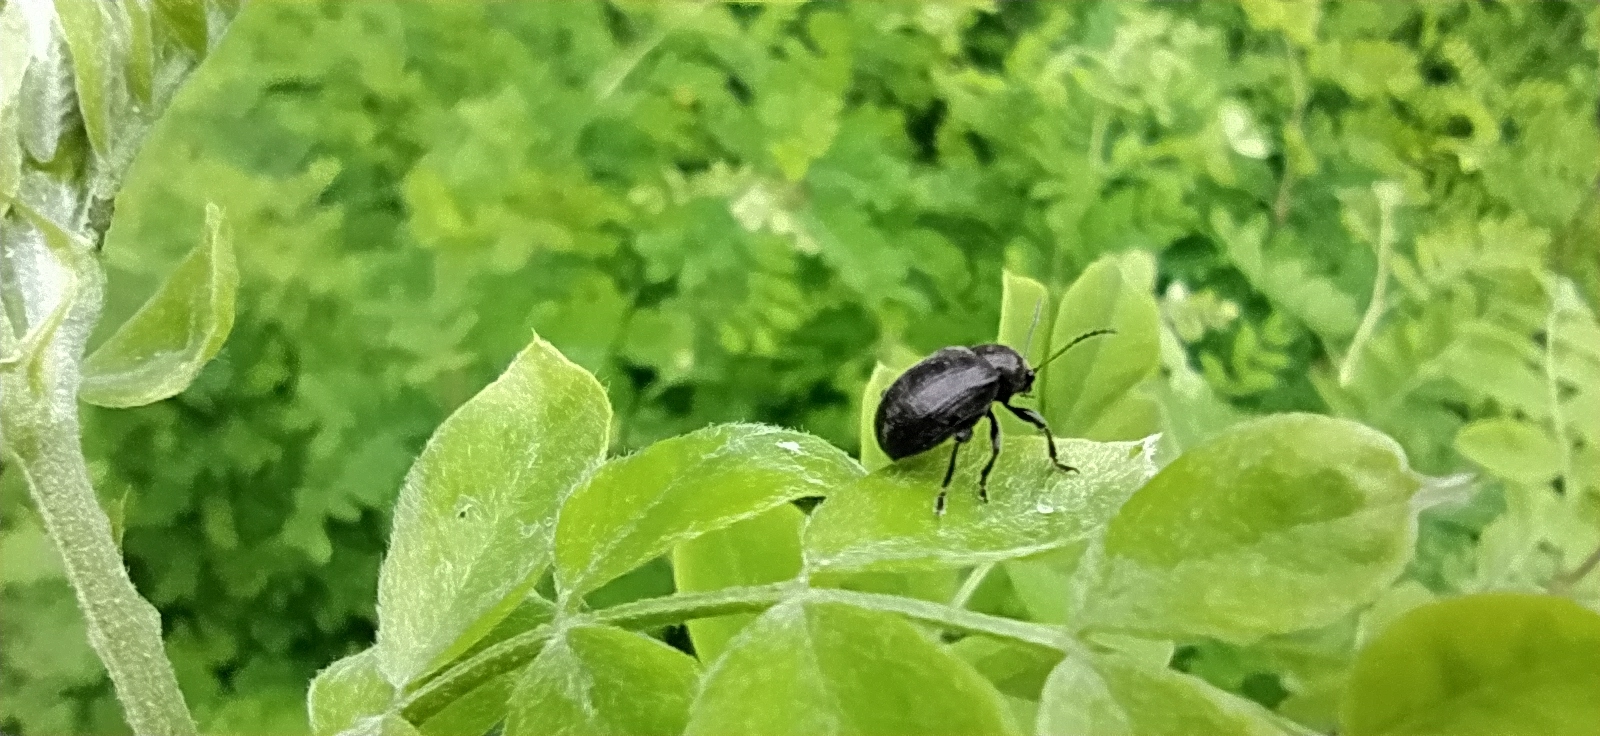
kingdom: Animalia
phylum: Arthropoda
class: Insecta
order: Coleoptera
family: Chrysomelidae
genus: Bromius
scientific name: Bromius obscurus
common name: Western grape rootworm
